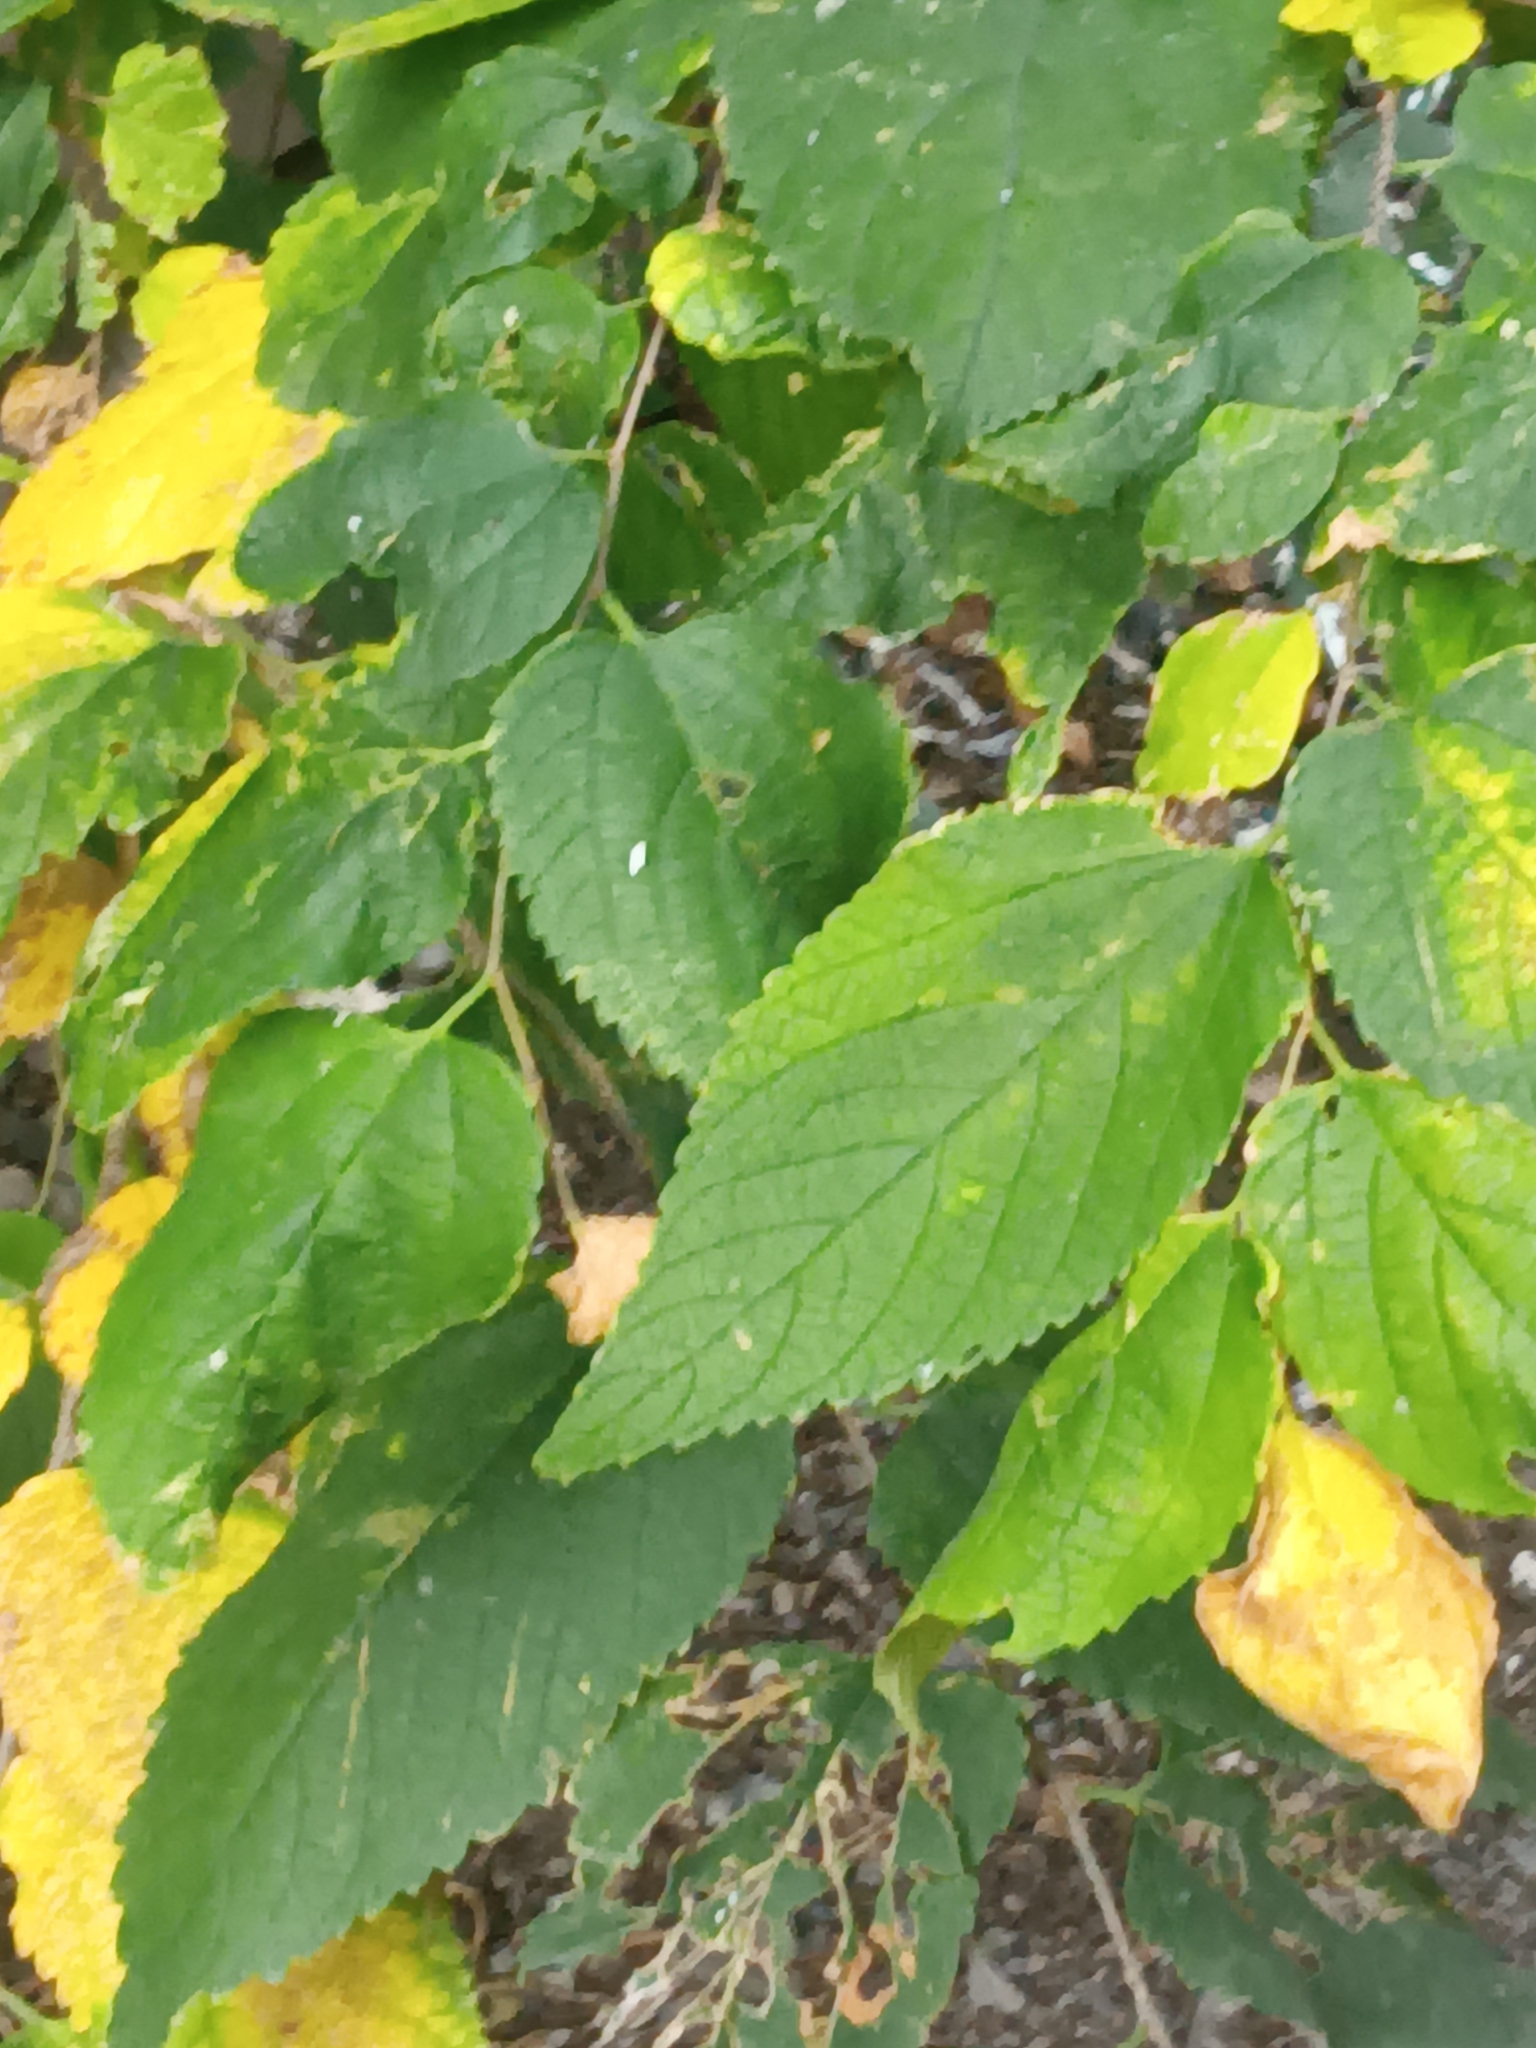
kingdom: Plantae
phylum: Tracheophyta
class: Magnoliopsida
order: Rosales
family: Cannabaceae
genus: Celtis
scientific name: Celtis occidentalis
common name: Common hackberry
